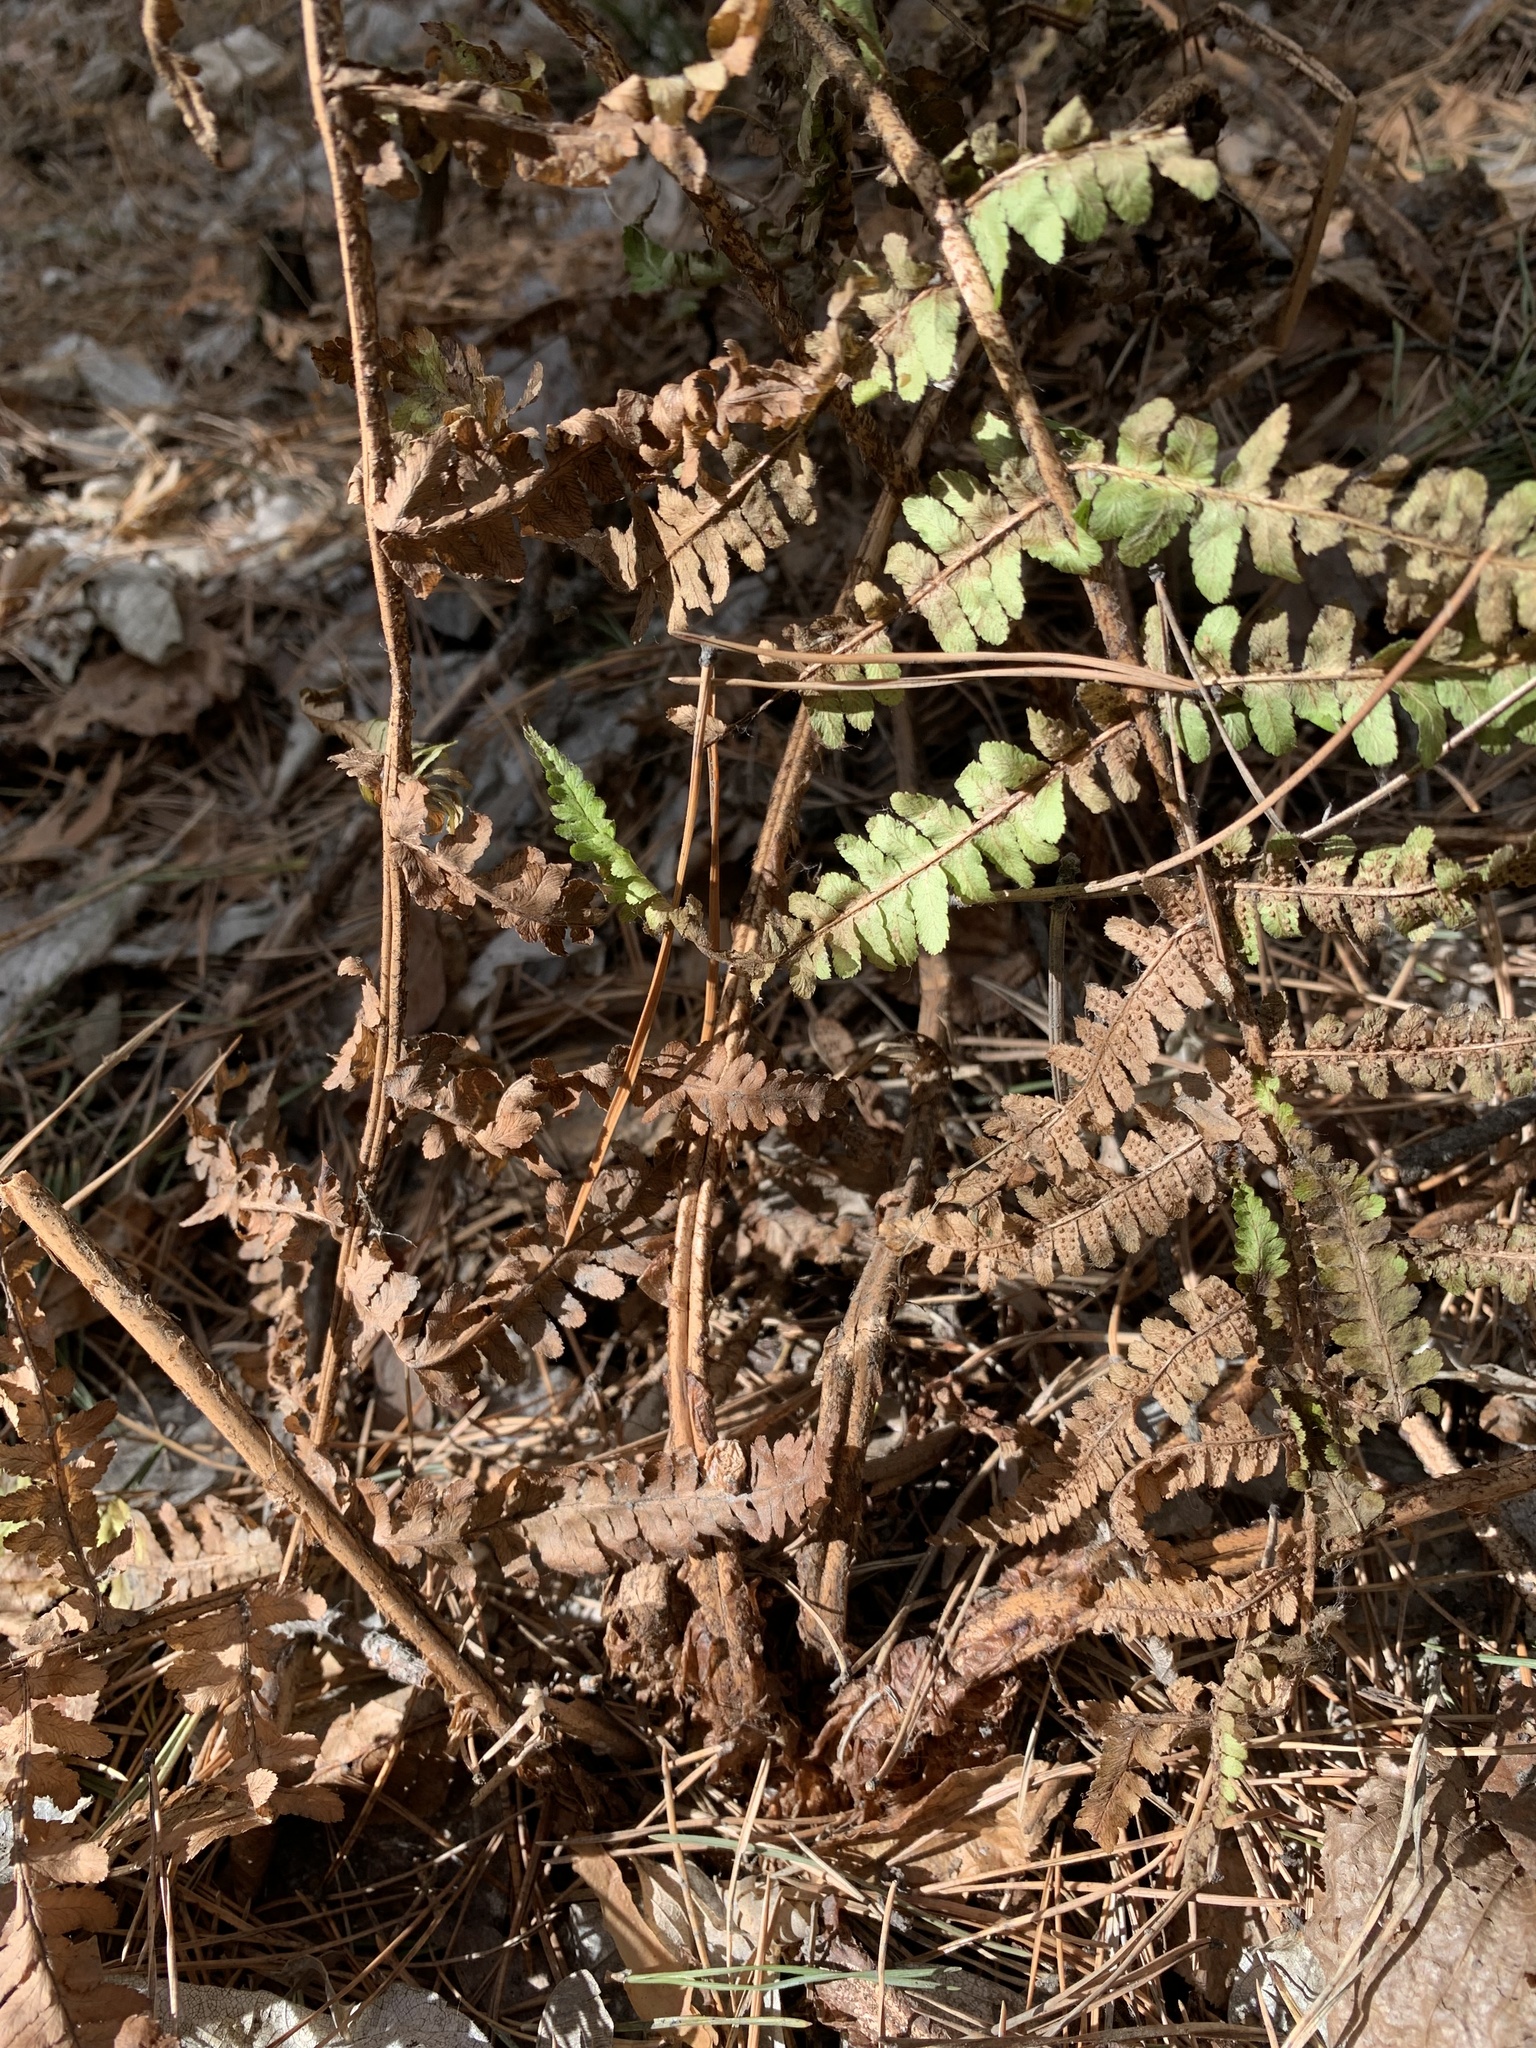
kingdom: Plantae
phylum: Tracheophyta
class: Polypodiopsida
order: Polypodiales
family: Dryopteridaceae
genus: Dryopteris
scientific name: Dryopteris filix-mas
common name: Male fern
